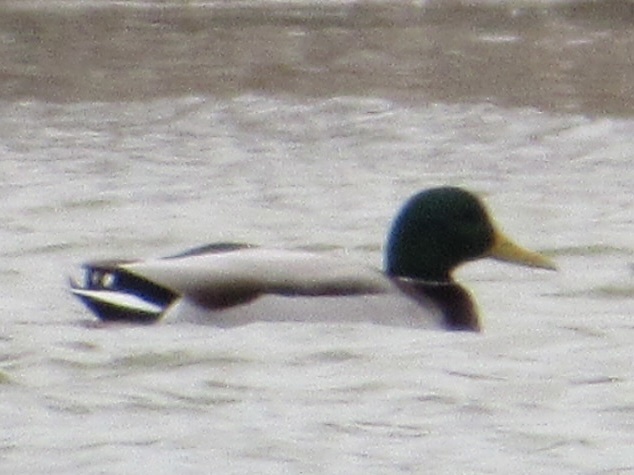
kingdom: Animalia
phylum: Chordata
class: Aves
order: Anseriformes
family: Anatidae
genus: Anas
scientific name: Anas platyrhynchos
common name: Mallard
